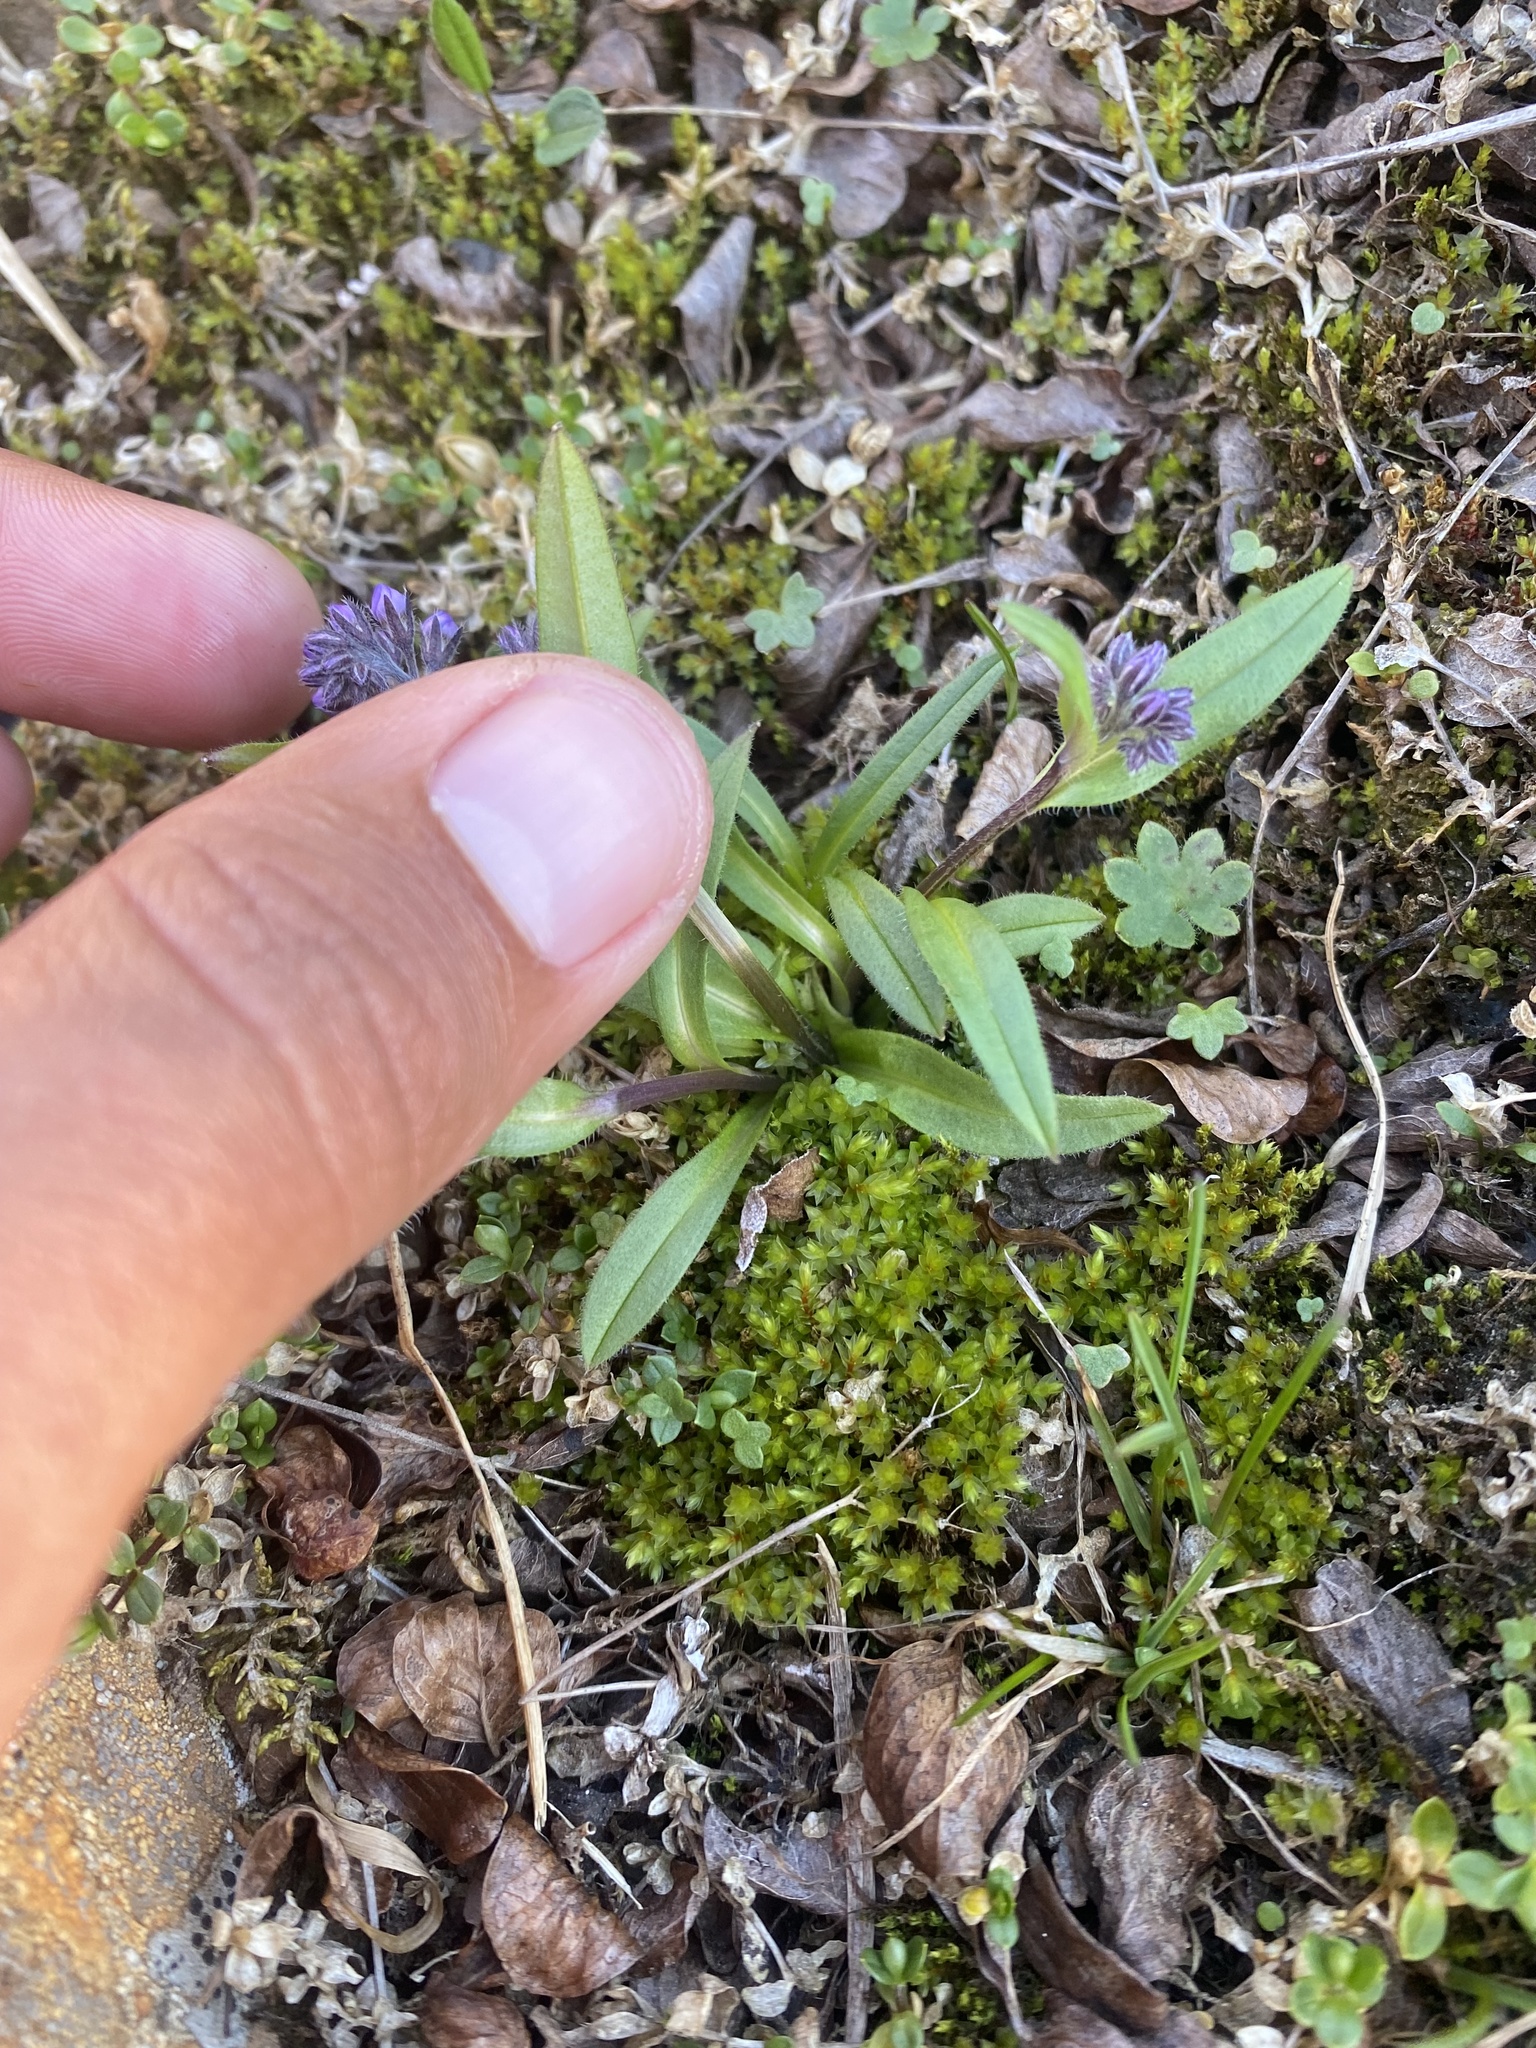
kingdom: Plantae
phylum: Tracheophyta
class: Magnoliopsida
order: Boraginales
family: Boraginaceae
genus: Myosotis
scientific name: Myosotis asiatica
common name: Asian forget-me-not
